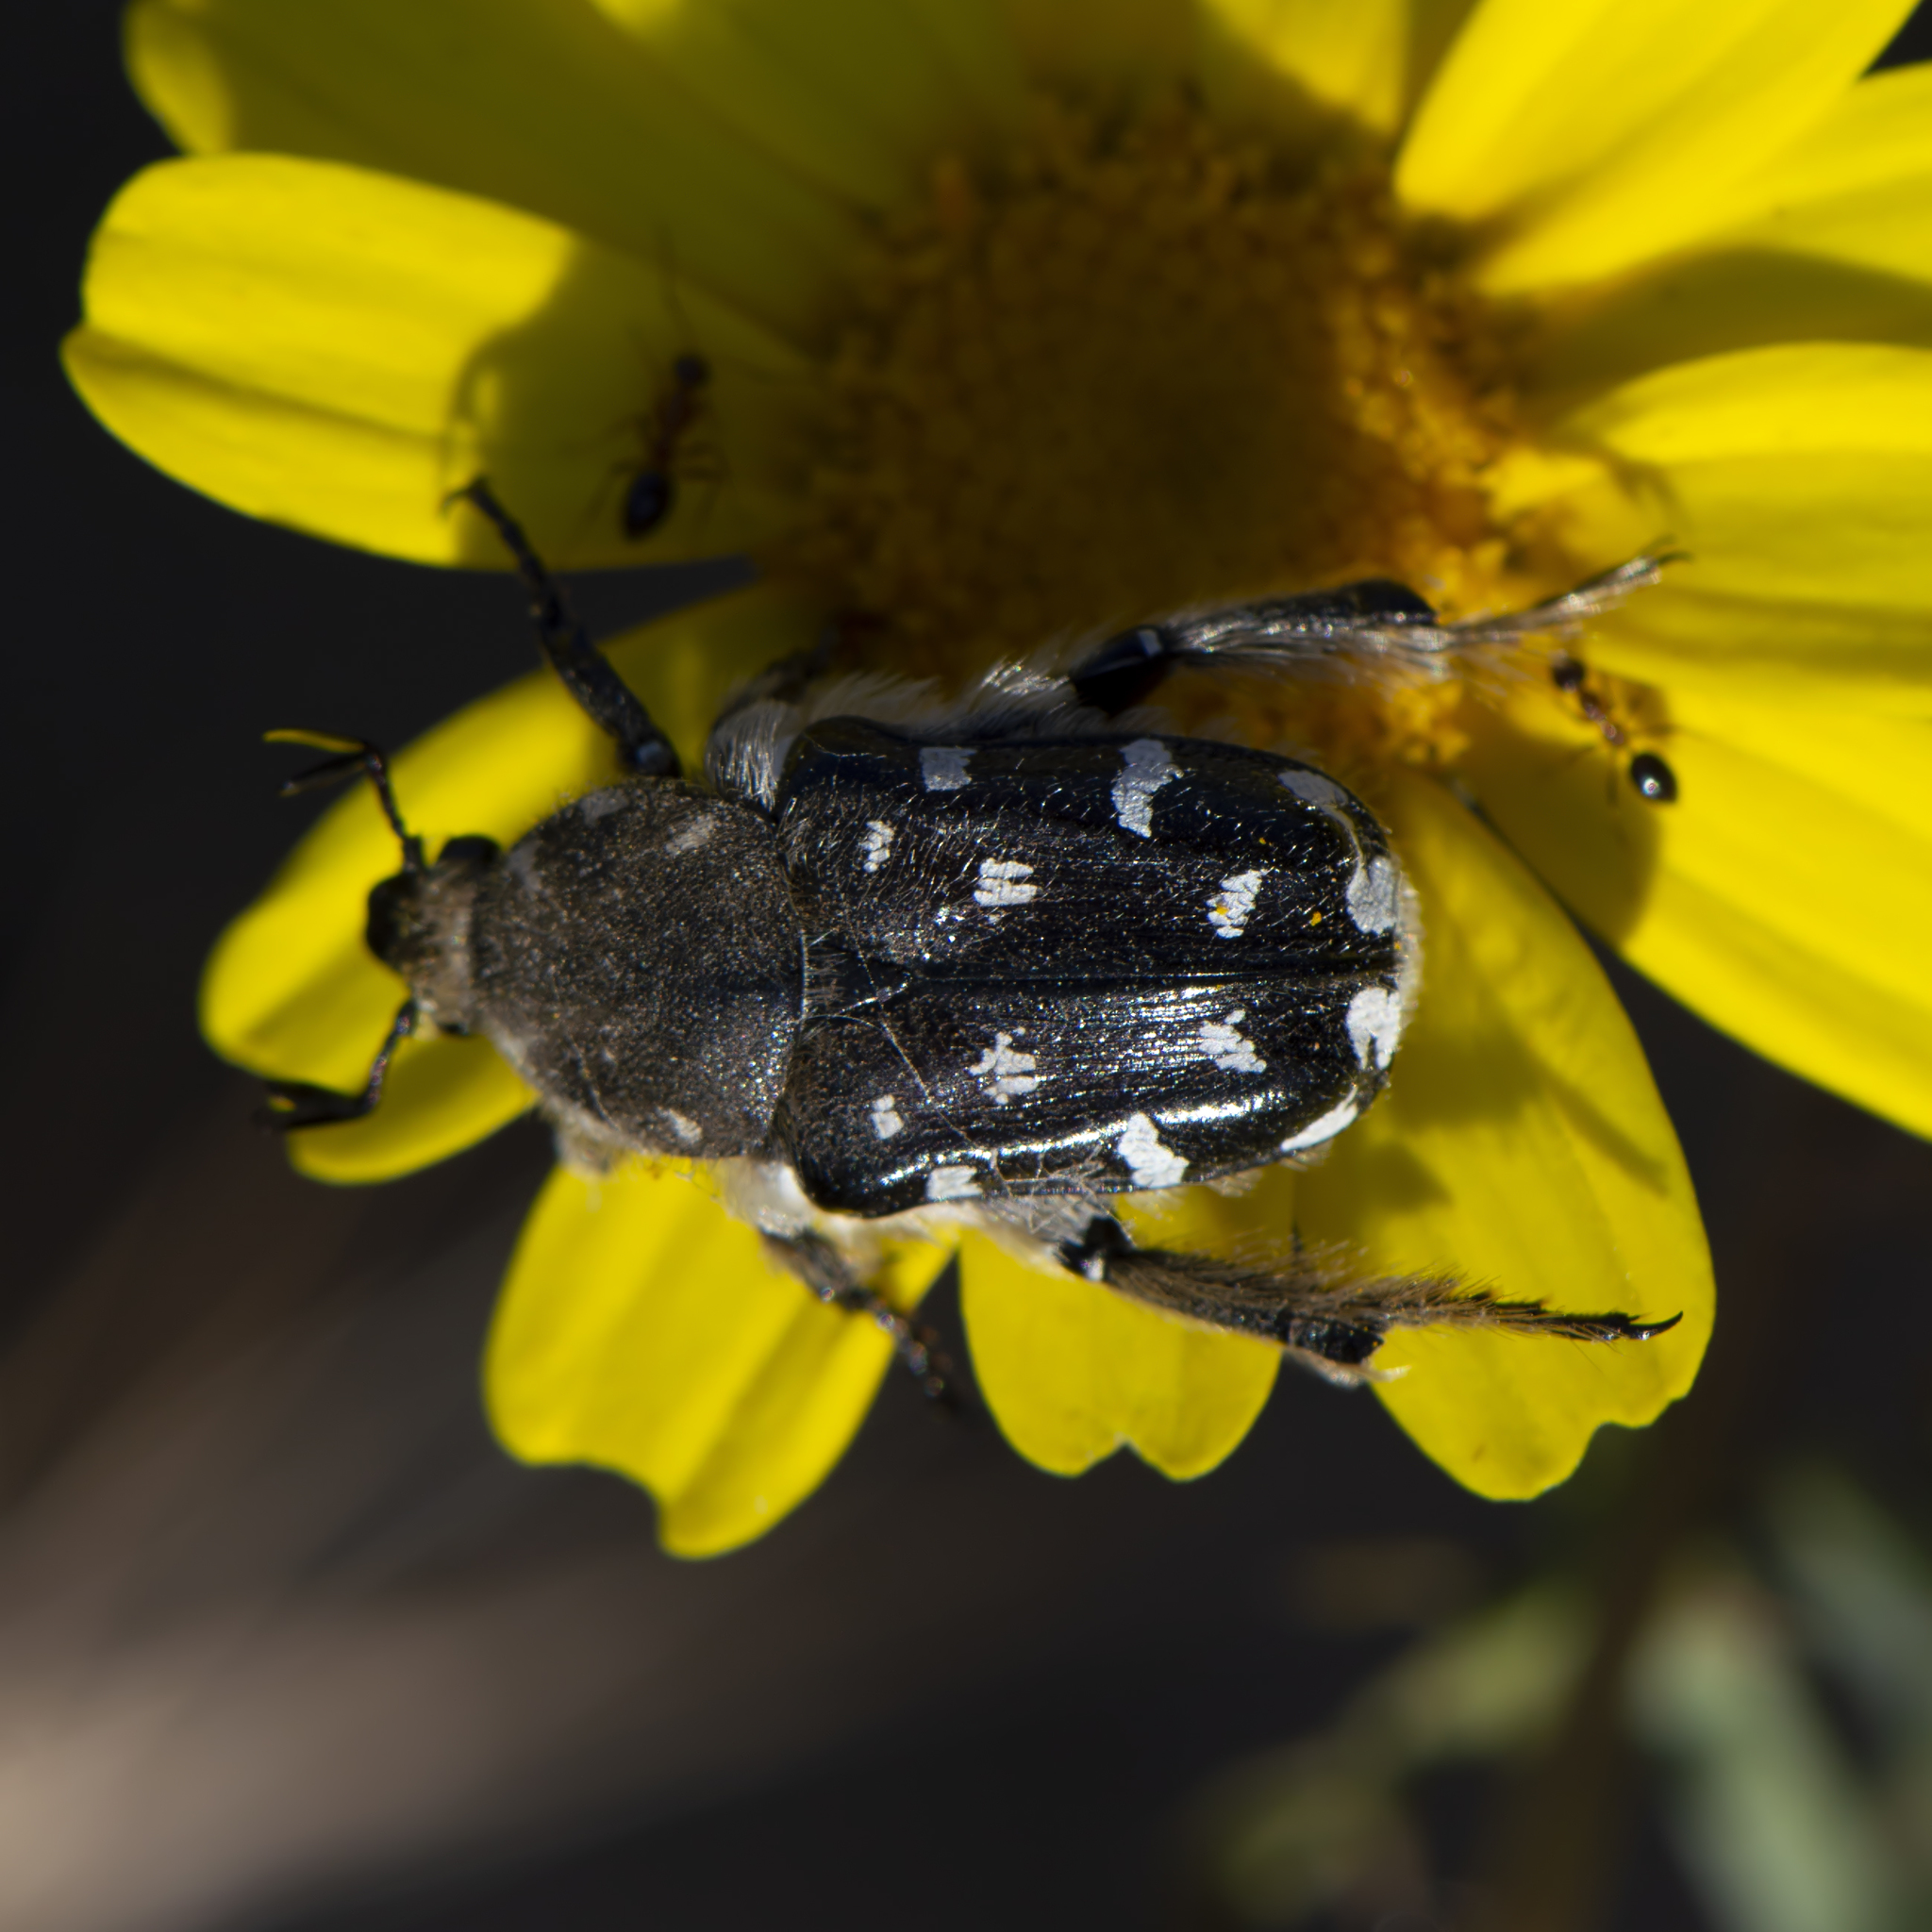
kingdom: Animalia
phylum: Arthropoda
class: Insecta
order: Coleoptera
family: Scarabaeidae
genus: Heterocnemis
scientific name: Heterocnemis graeca
